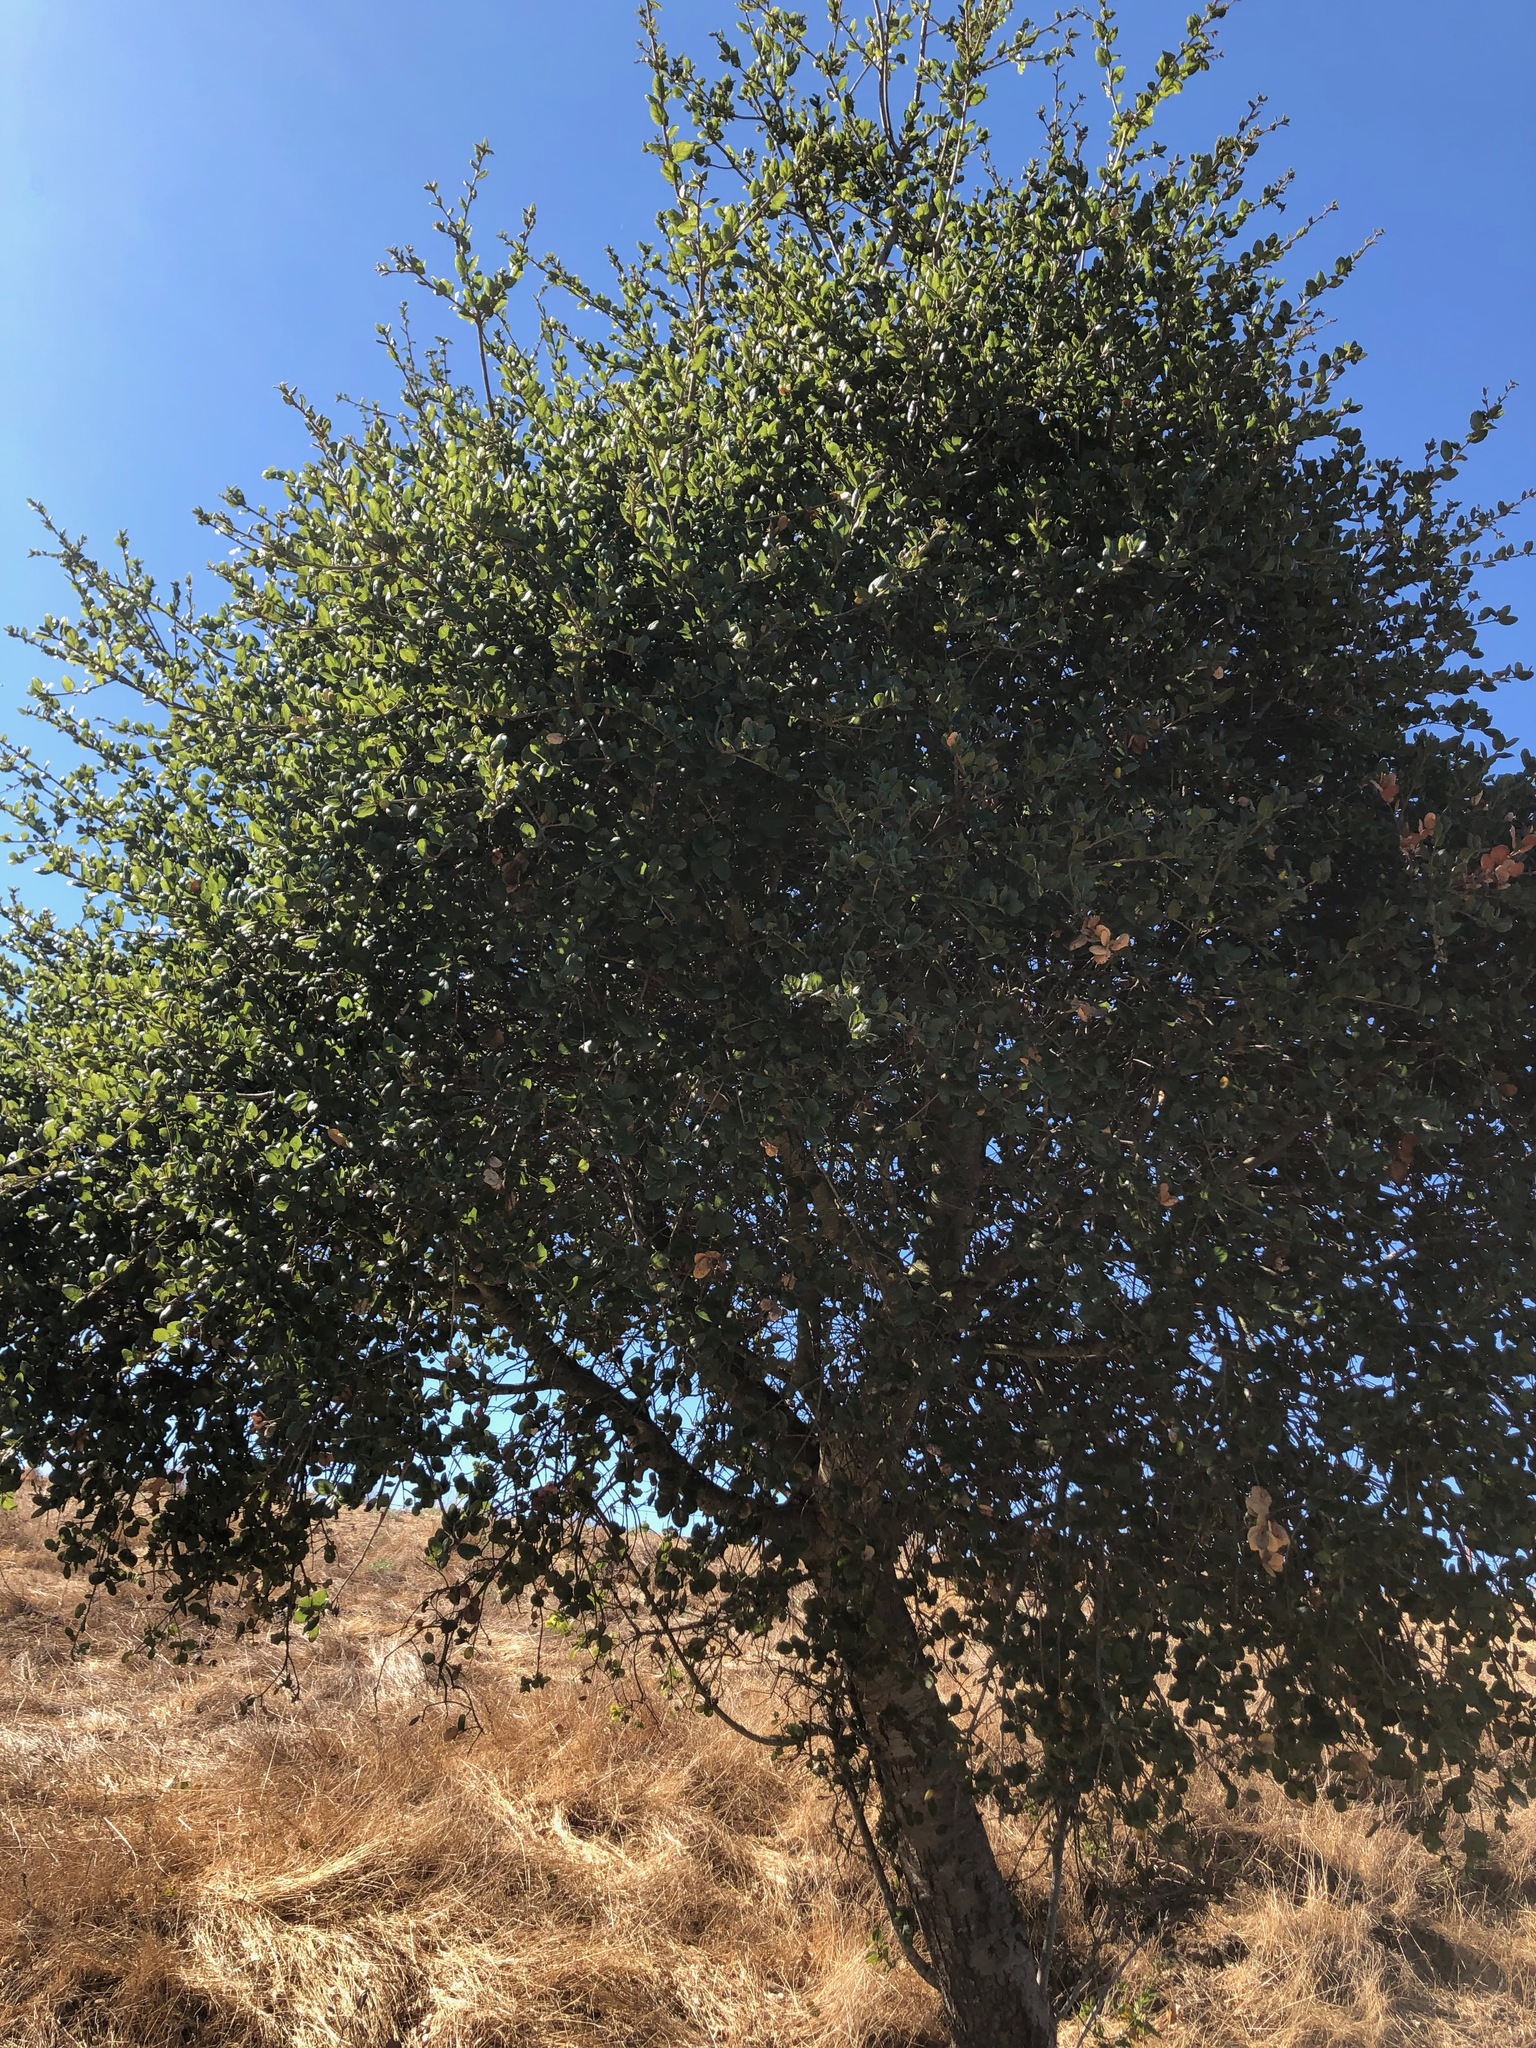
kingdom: Plantae
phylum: Tracheophyta
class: Magnoliopsida
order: Fagales
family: Fagaceae
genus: Quercus
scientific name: Quercus agrifolia
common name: California live oak
